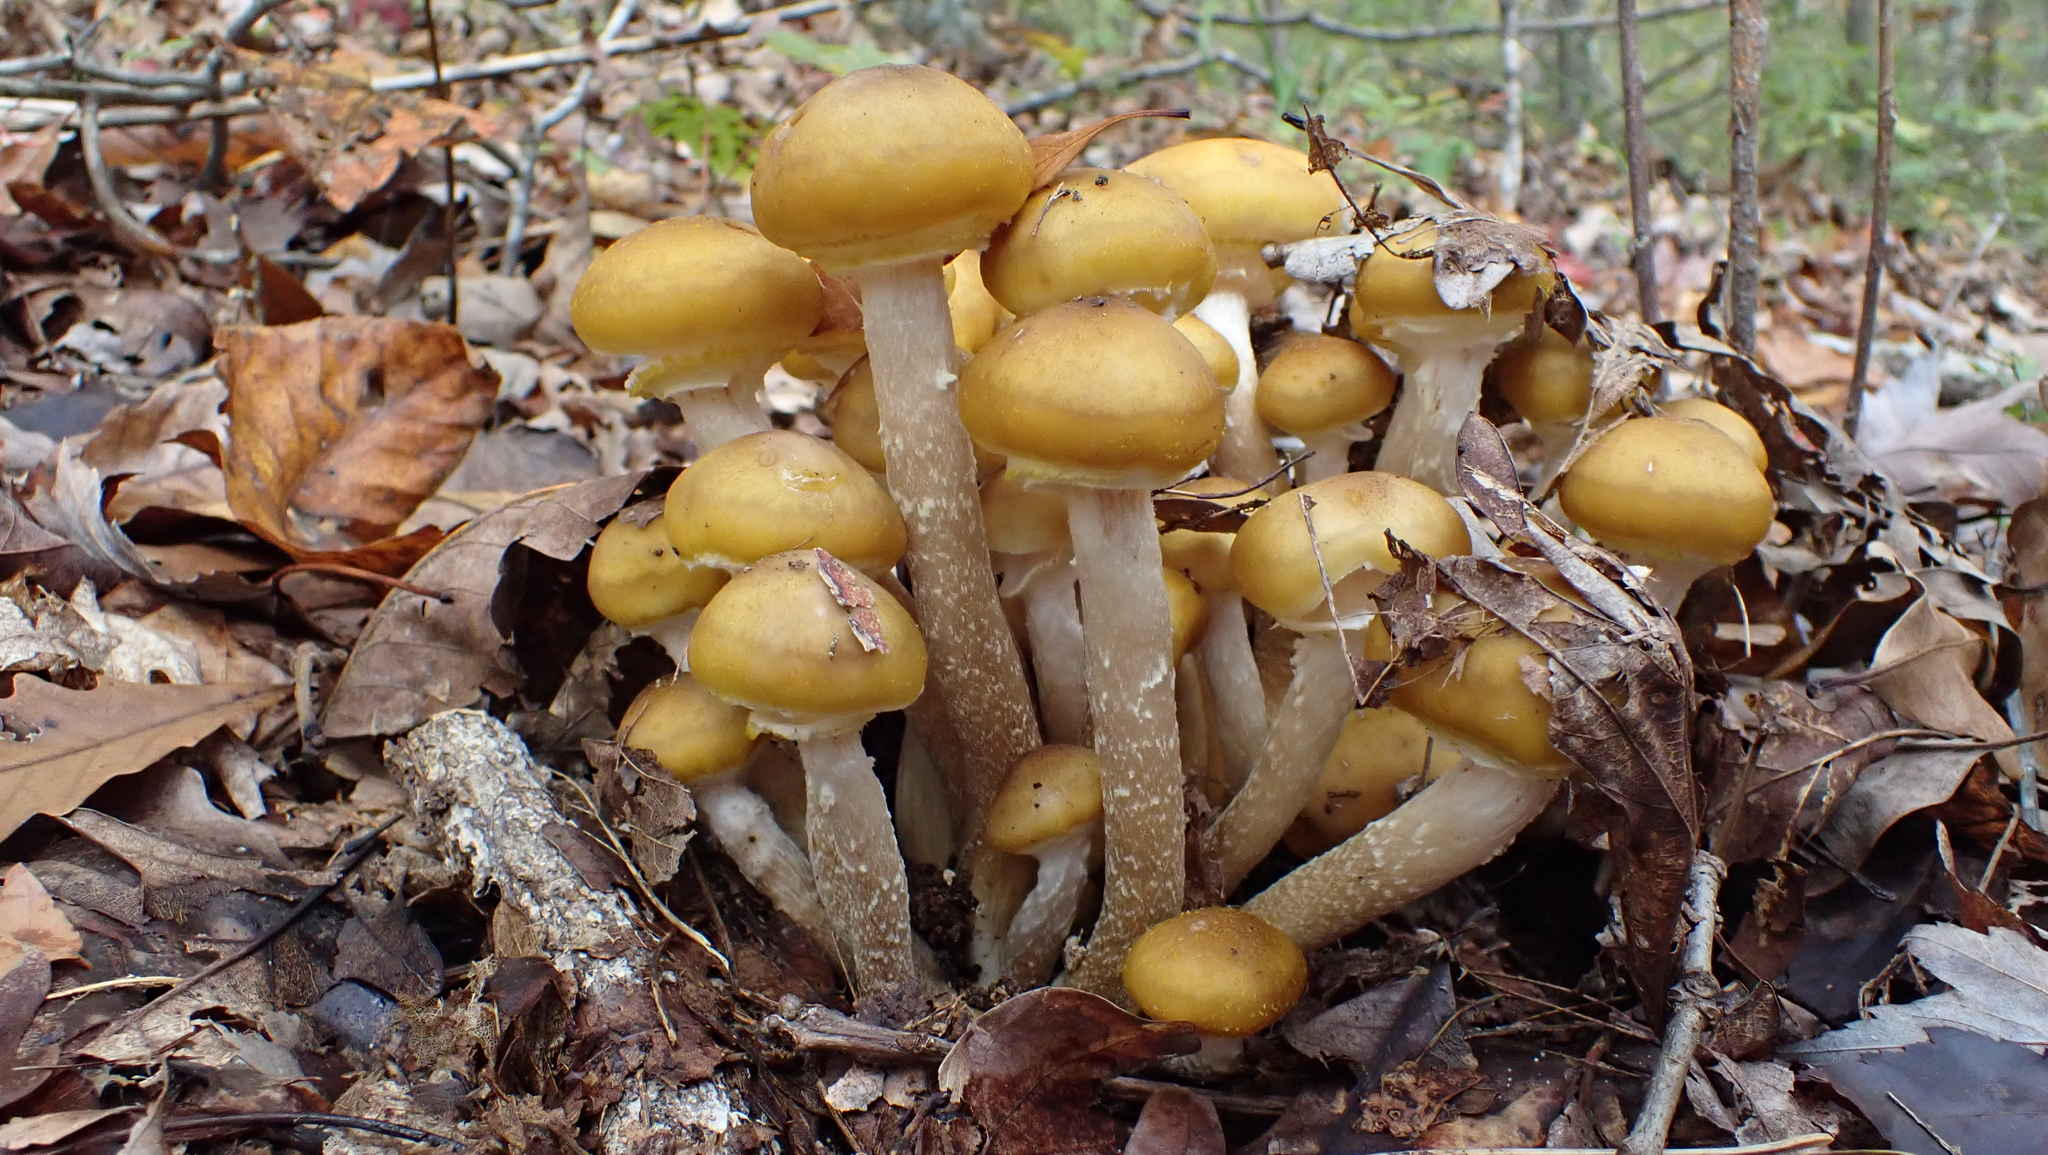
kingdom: Fungi
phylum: Basidiomycota
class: Agaricomycetes
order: Agaricales
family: Physalacriaceae
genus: Armillaria
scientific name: Armillaria mellea
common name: Honey fungus
